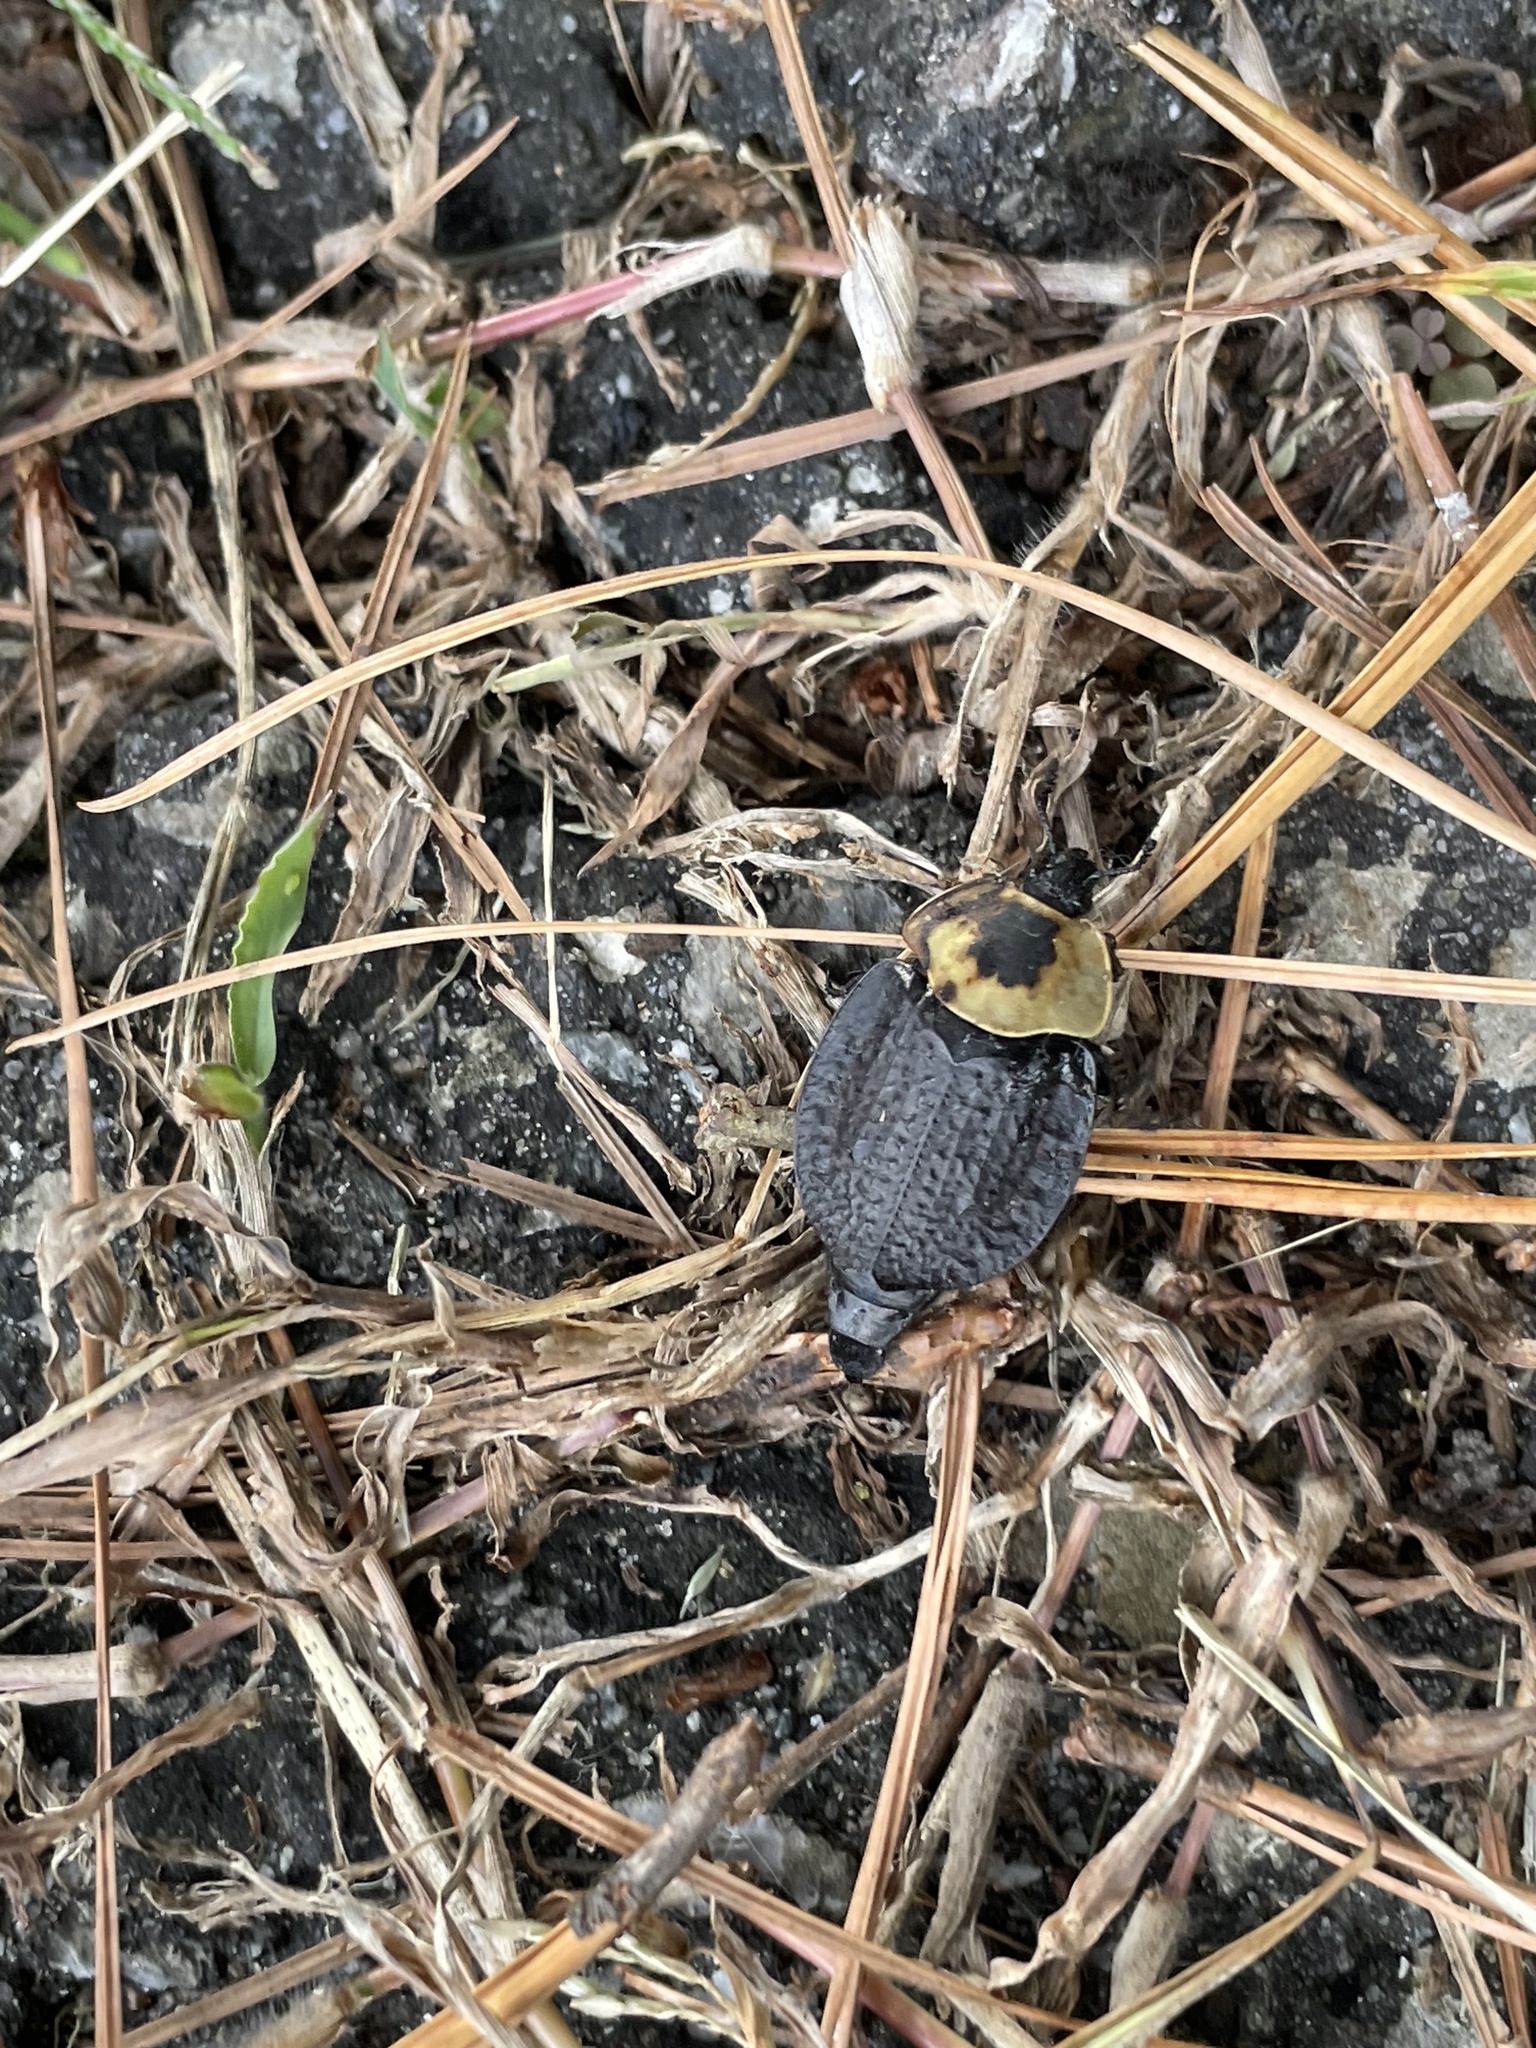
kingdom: Animalia
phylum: Arthropoda
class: Insecta
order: Coleoptera
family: Staphylinidae
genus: Necrophila
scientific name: Necrophila americana
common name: American carrion beetle
